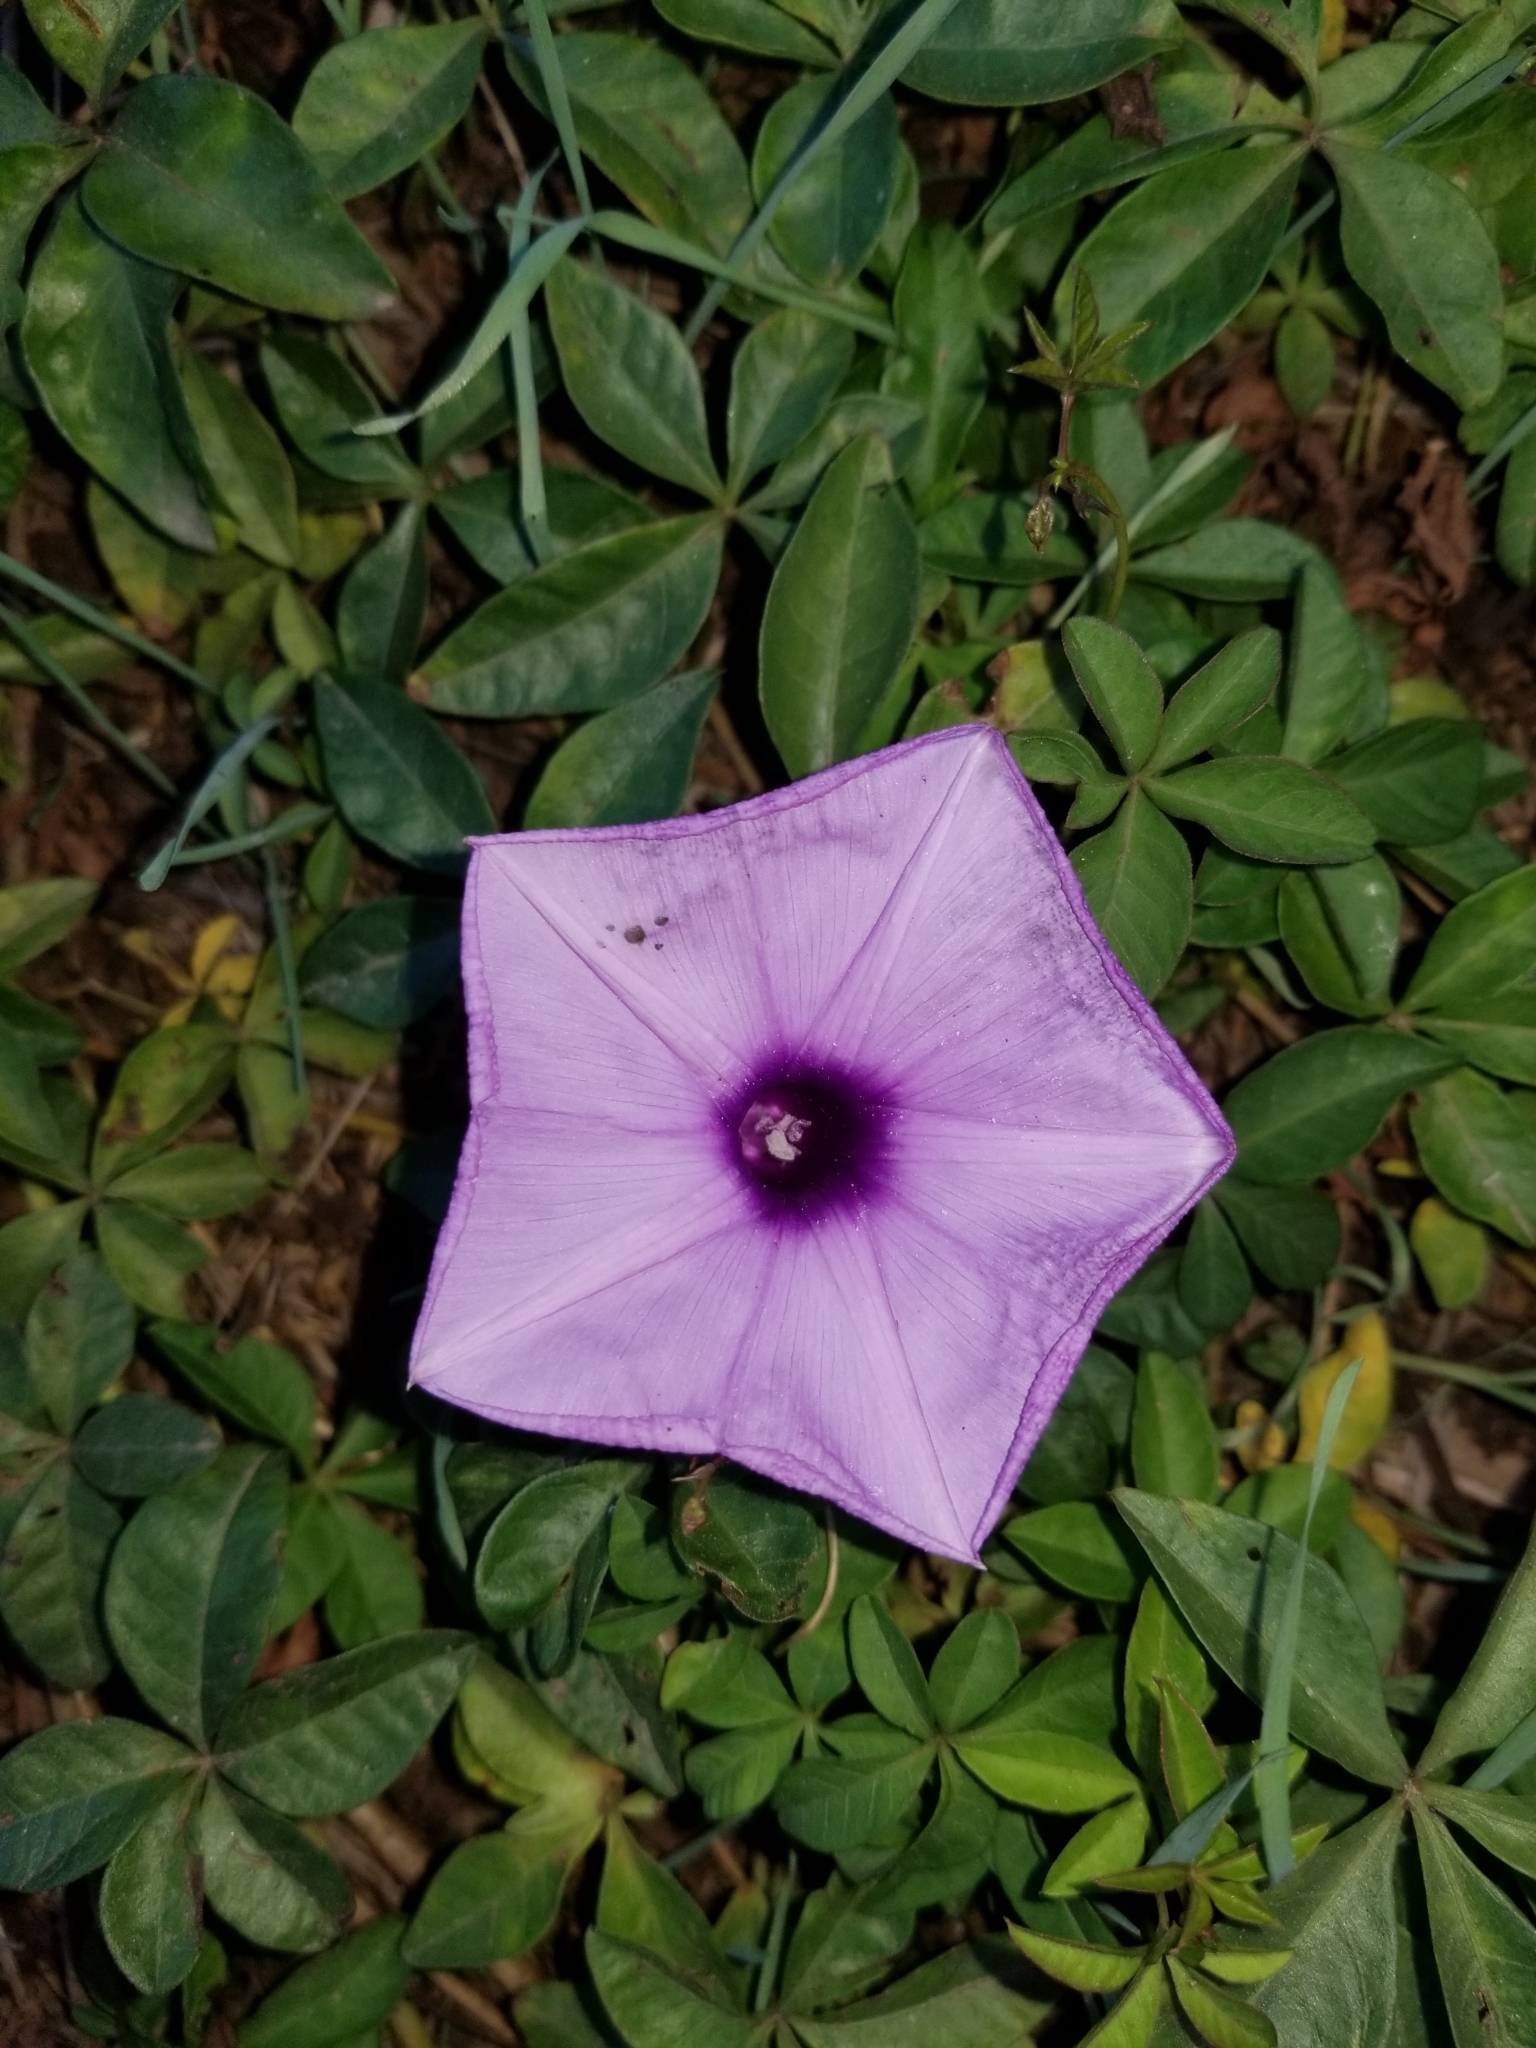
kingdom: Plantae
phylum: Tracheophyta
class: Magnoliopsida
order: Solanales
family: Convolvulaceae
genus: Ipomoea
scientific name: Ipomoea cairica
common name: Mile a minute vine
